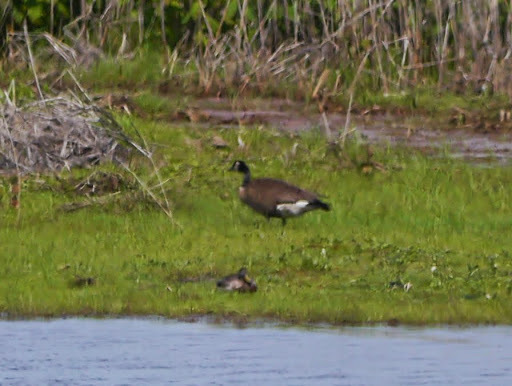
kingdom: Animalia
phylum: Chordata
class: Aves
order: Anseriformes
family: Anatidae
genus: Branta
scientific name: Branta canadensis
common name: Canada goose
